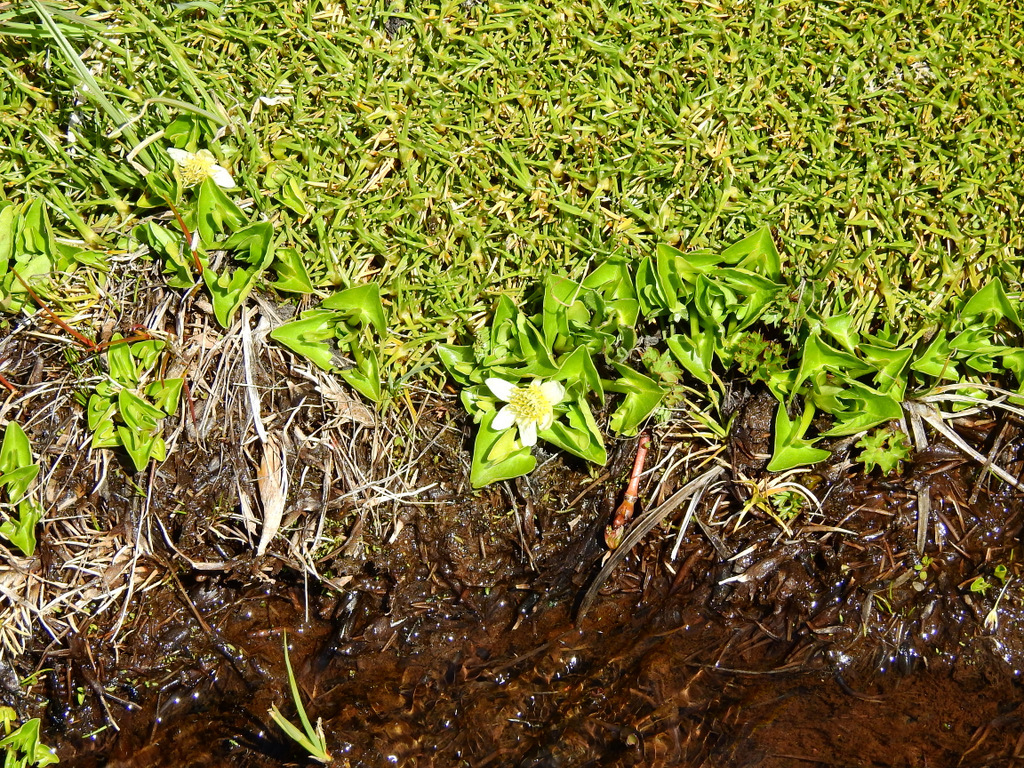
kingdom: Plantae
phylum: Tracheophyta
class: Magnoliopsida
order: Ranunculales
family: Ranunculaceae
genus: Caltha
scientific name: Caltha sagittata
